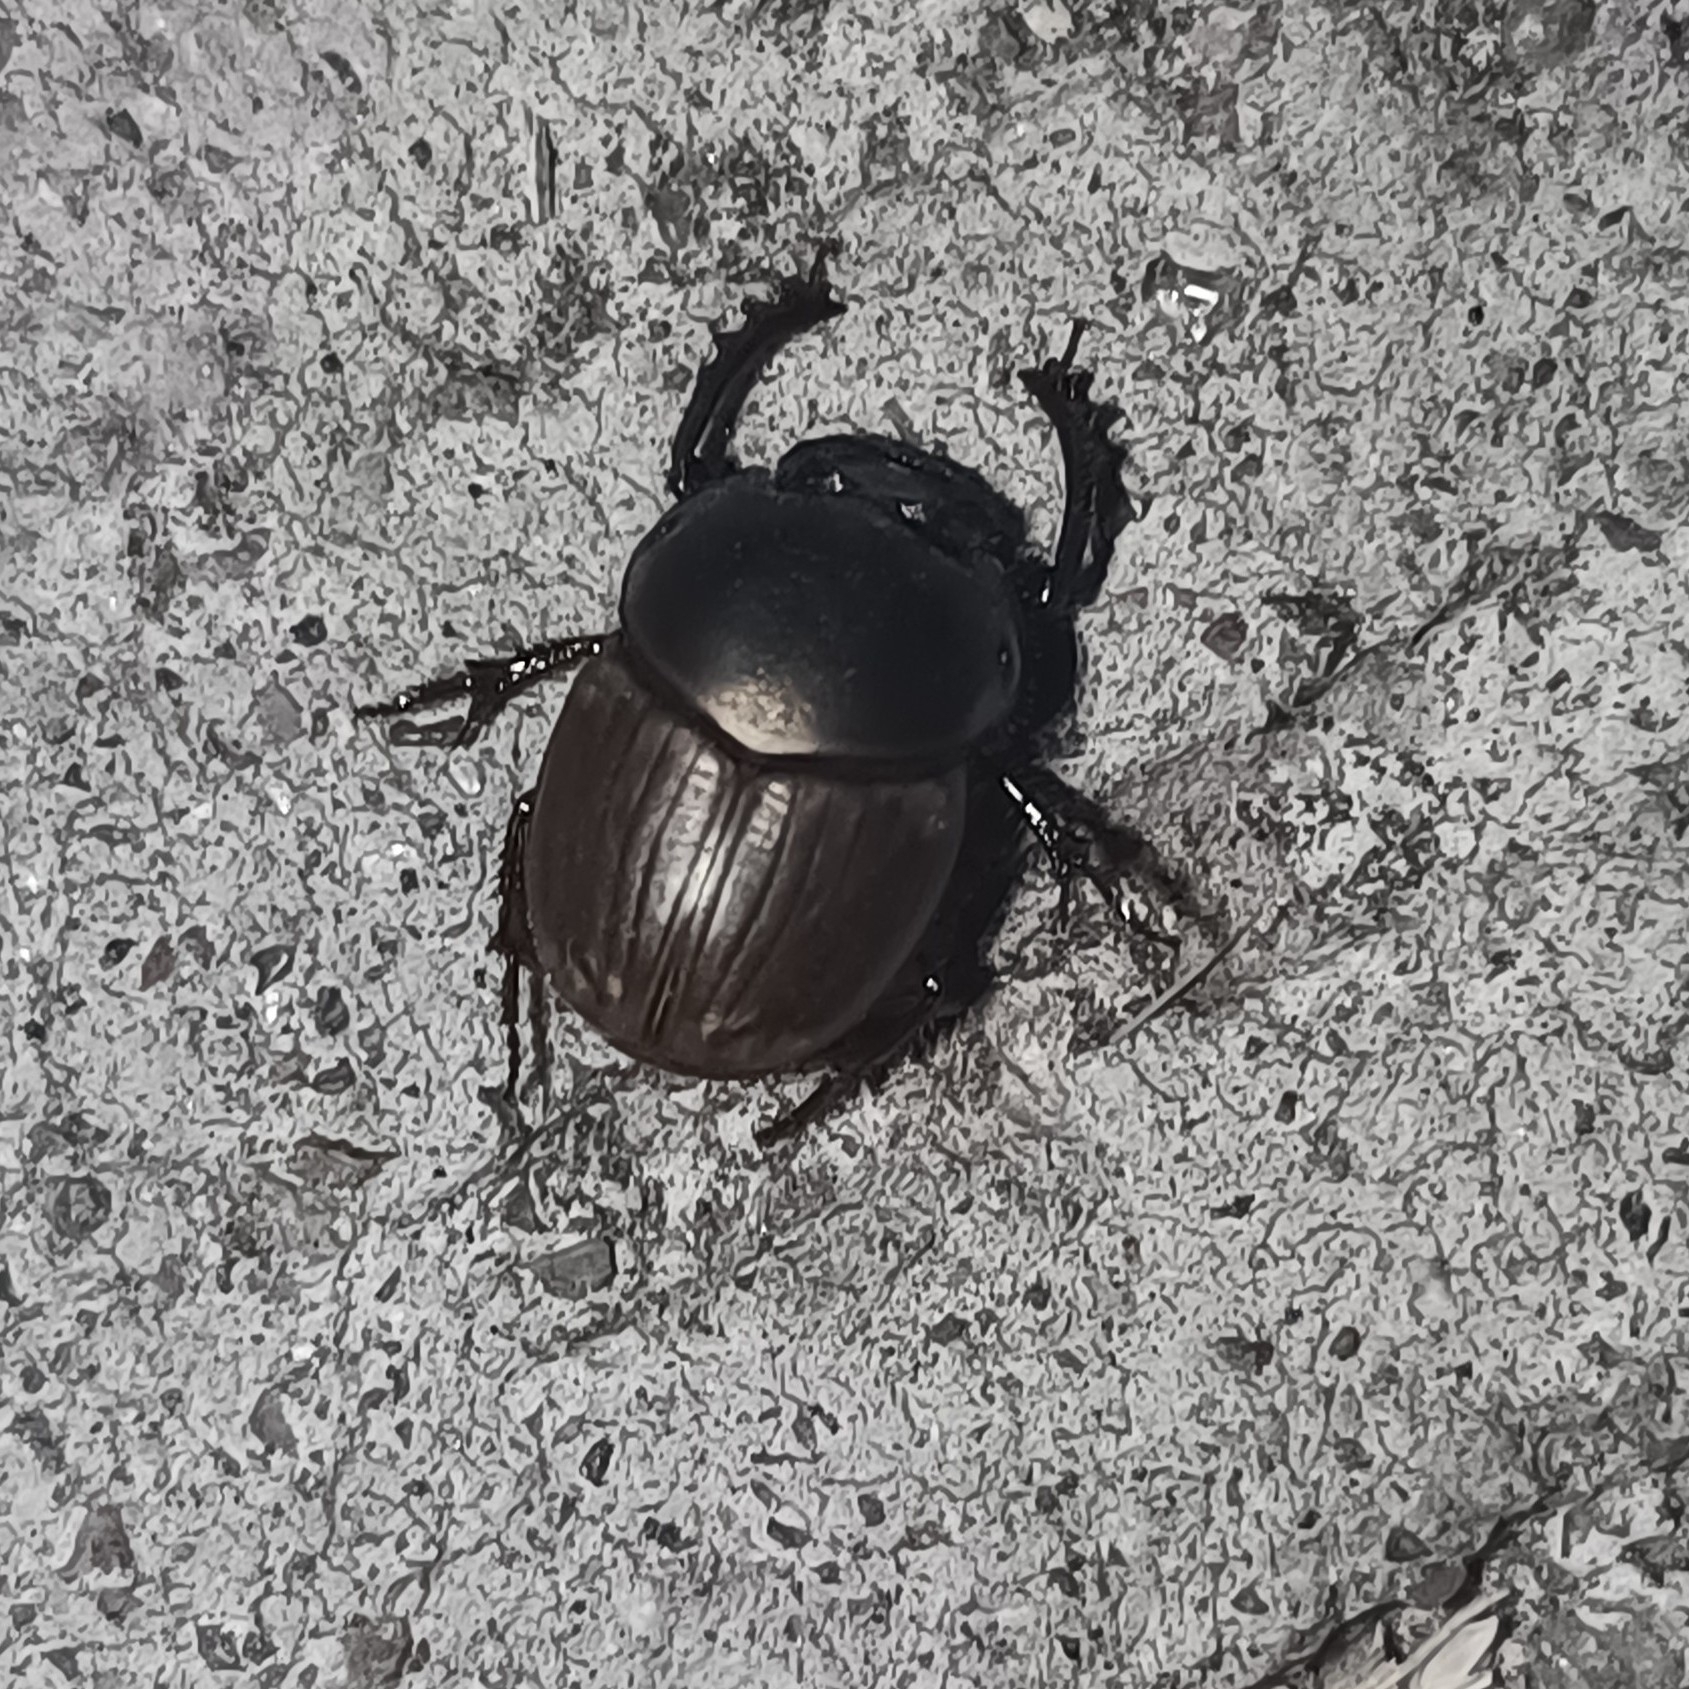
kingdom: Animalia
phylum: Arthropoda
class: Insecta
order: Coleoptera
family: Scarabaeidae
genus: Digitonthophagus
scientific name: Digitonthophagus gazella
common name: Brown dung beetle
